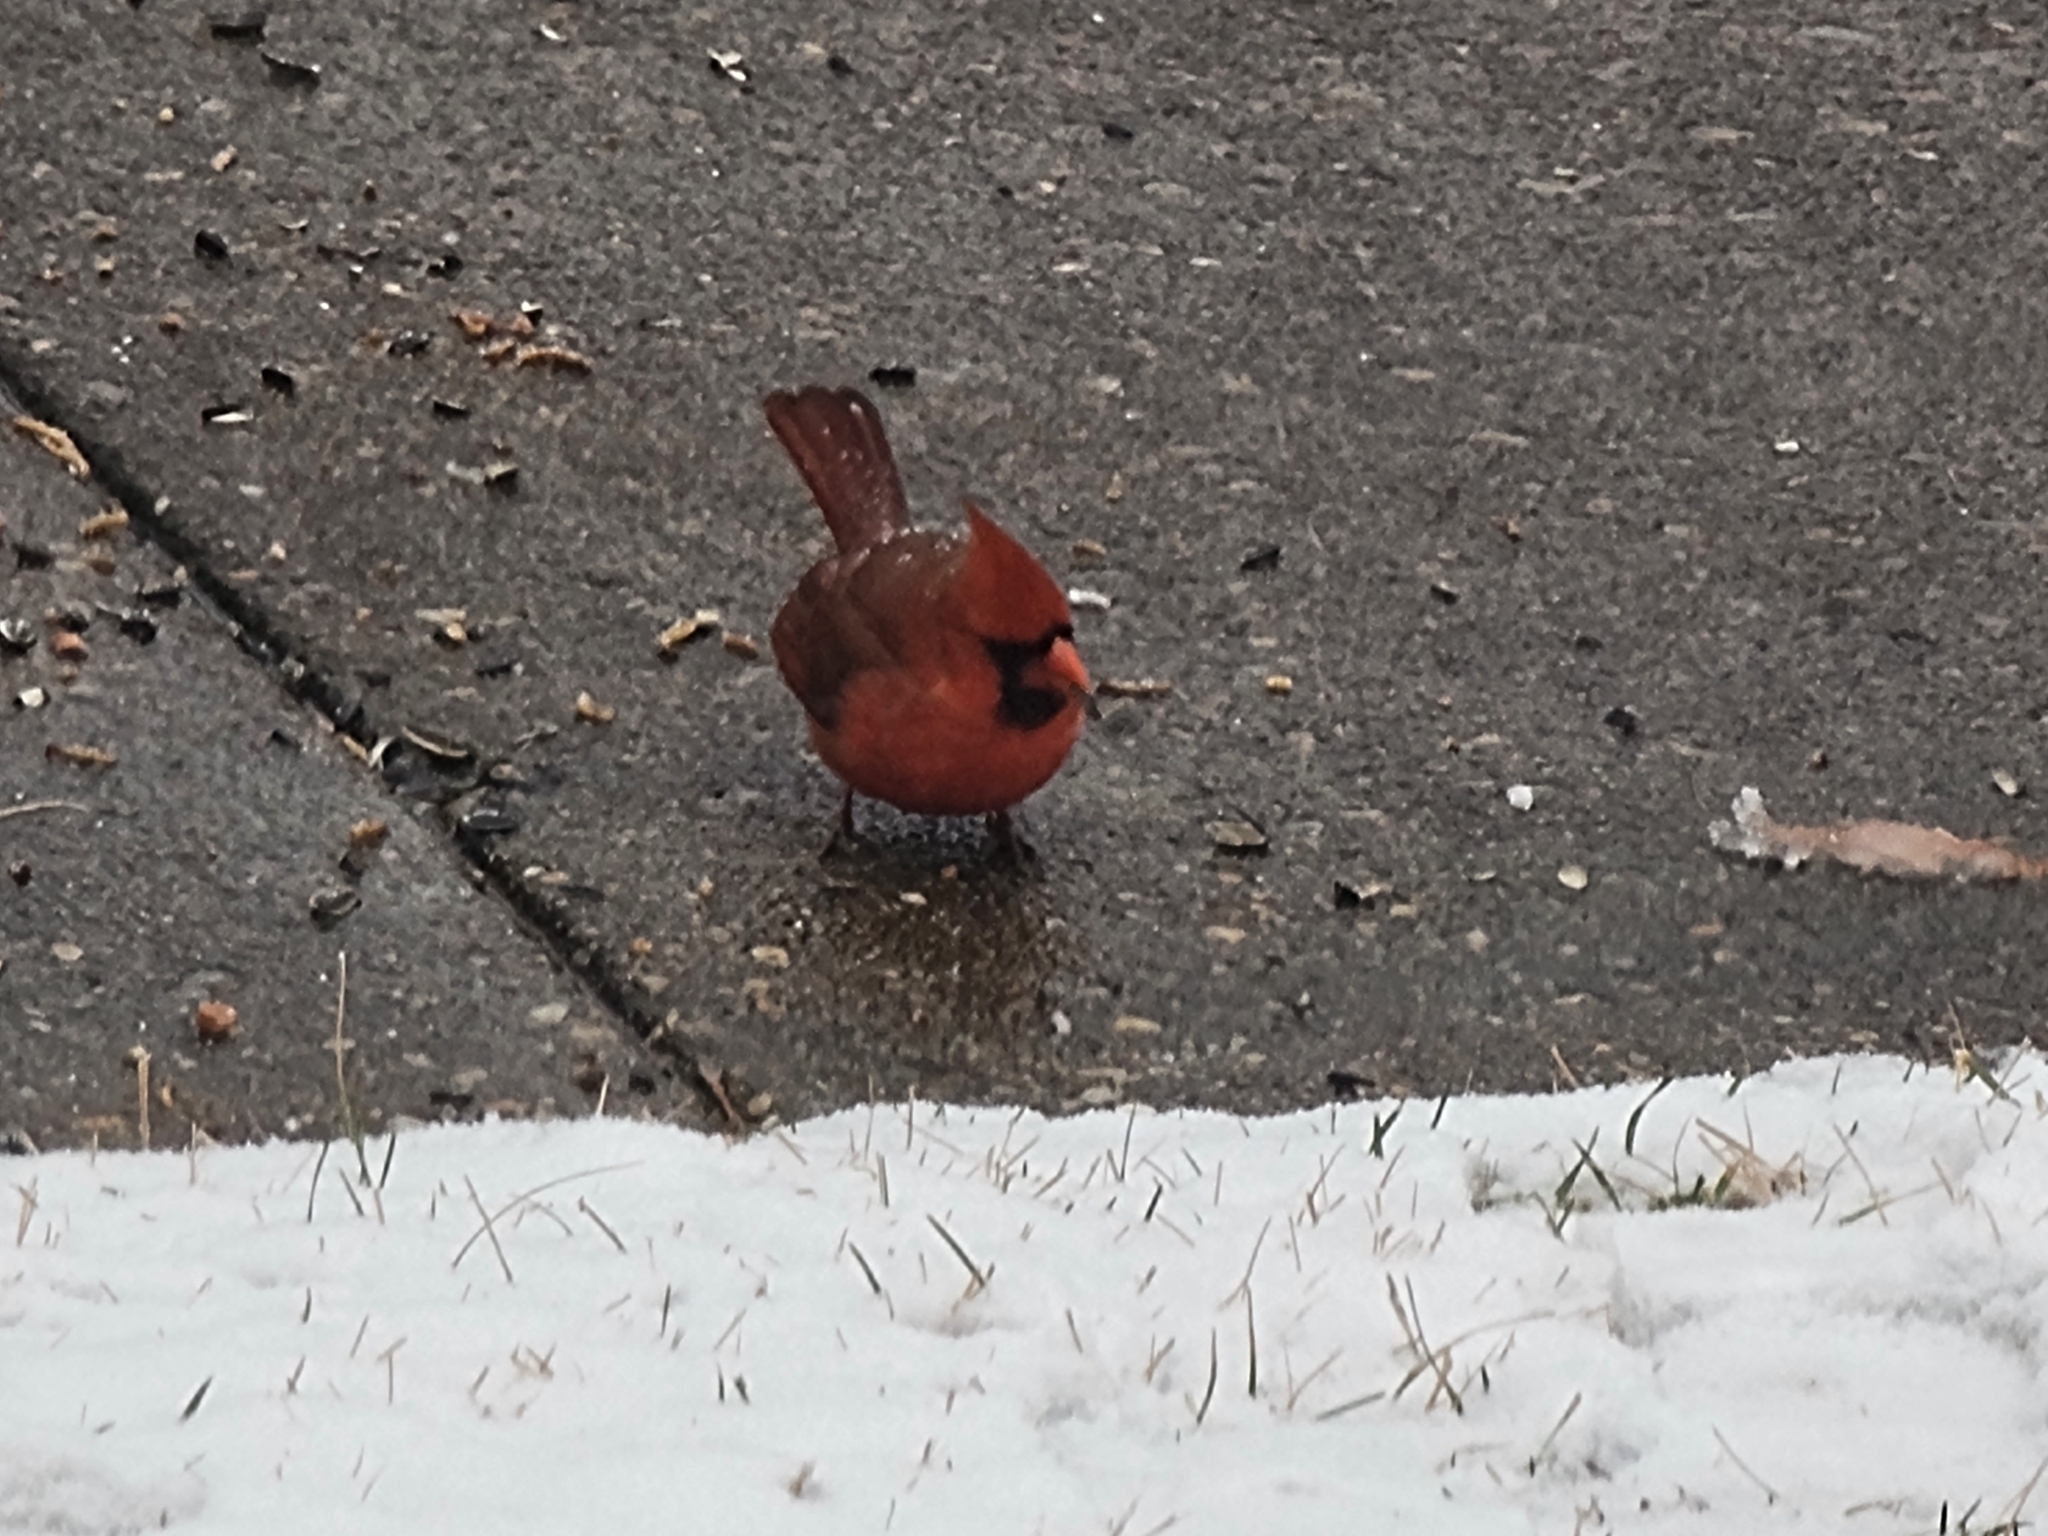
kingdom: Animalia
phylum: Chordata
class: Aves
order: Passeriformes
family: Cardinalidae
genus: Cardinalis
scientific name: Cardinalis cardinalis
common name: Northern cardinal
